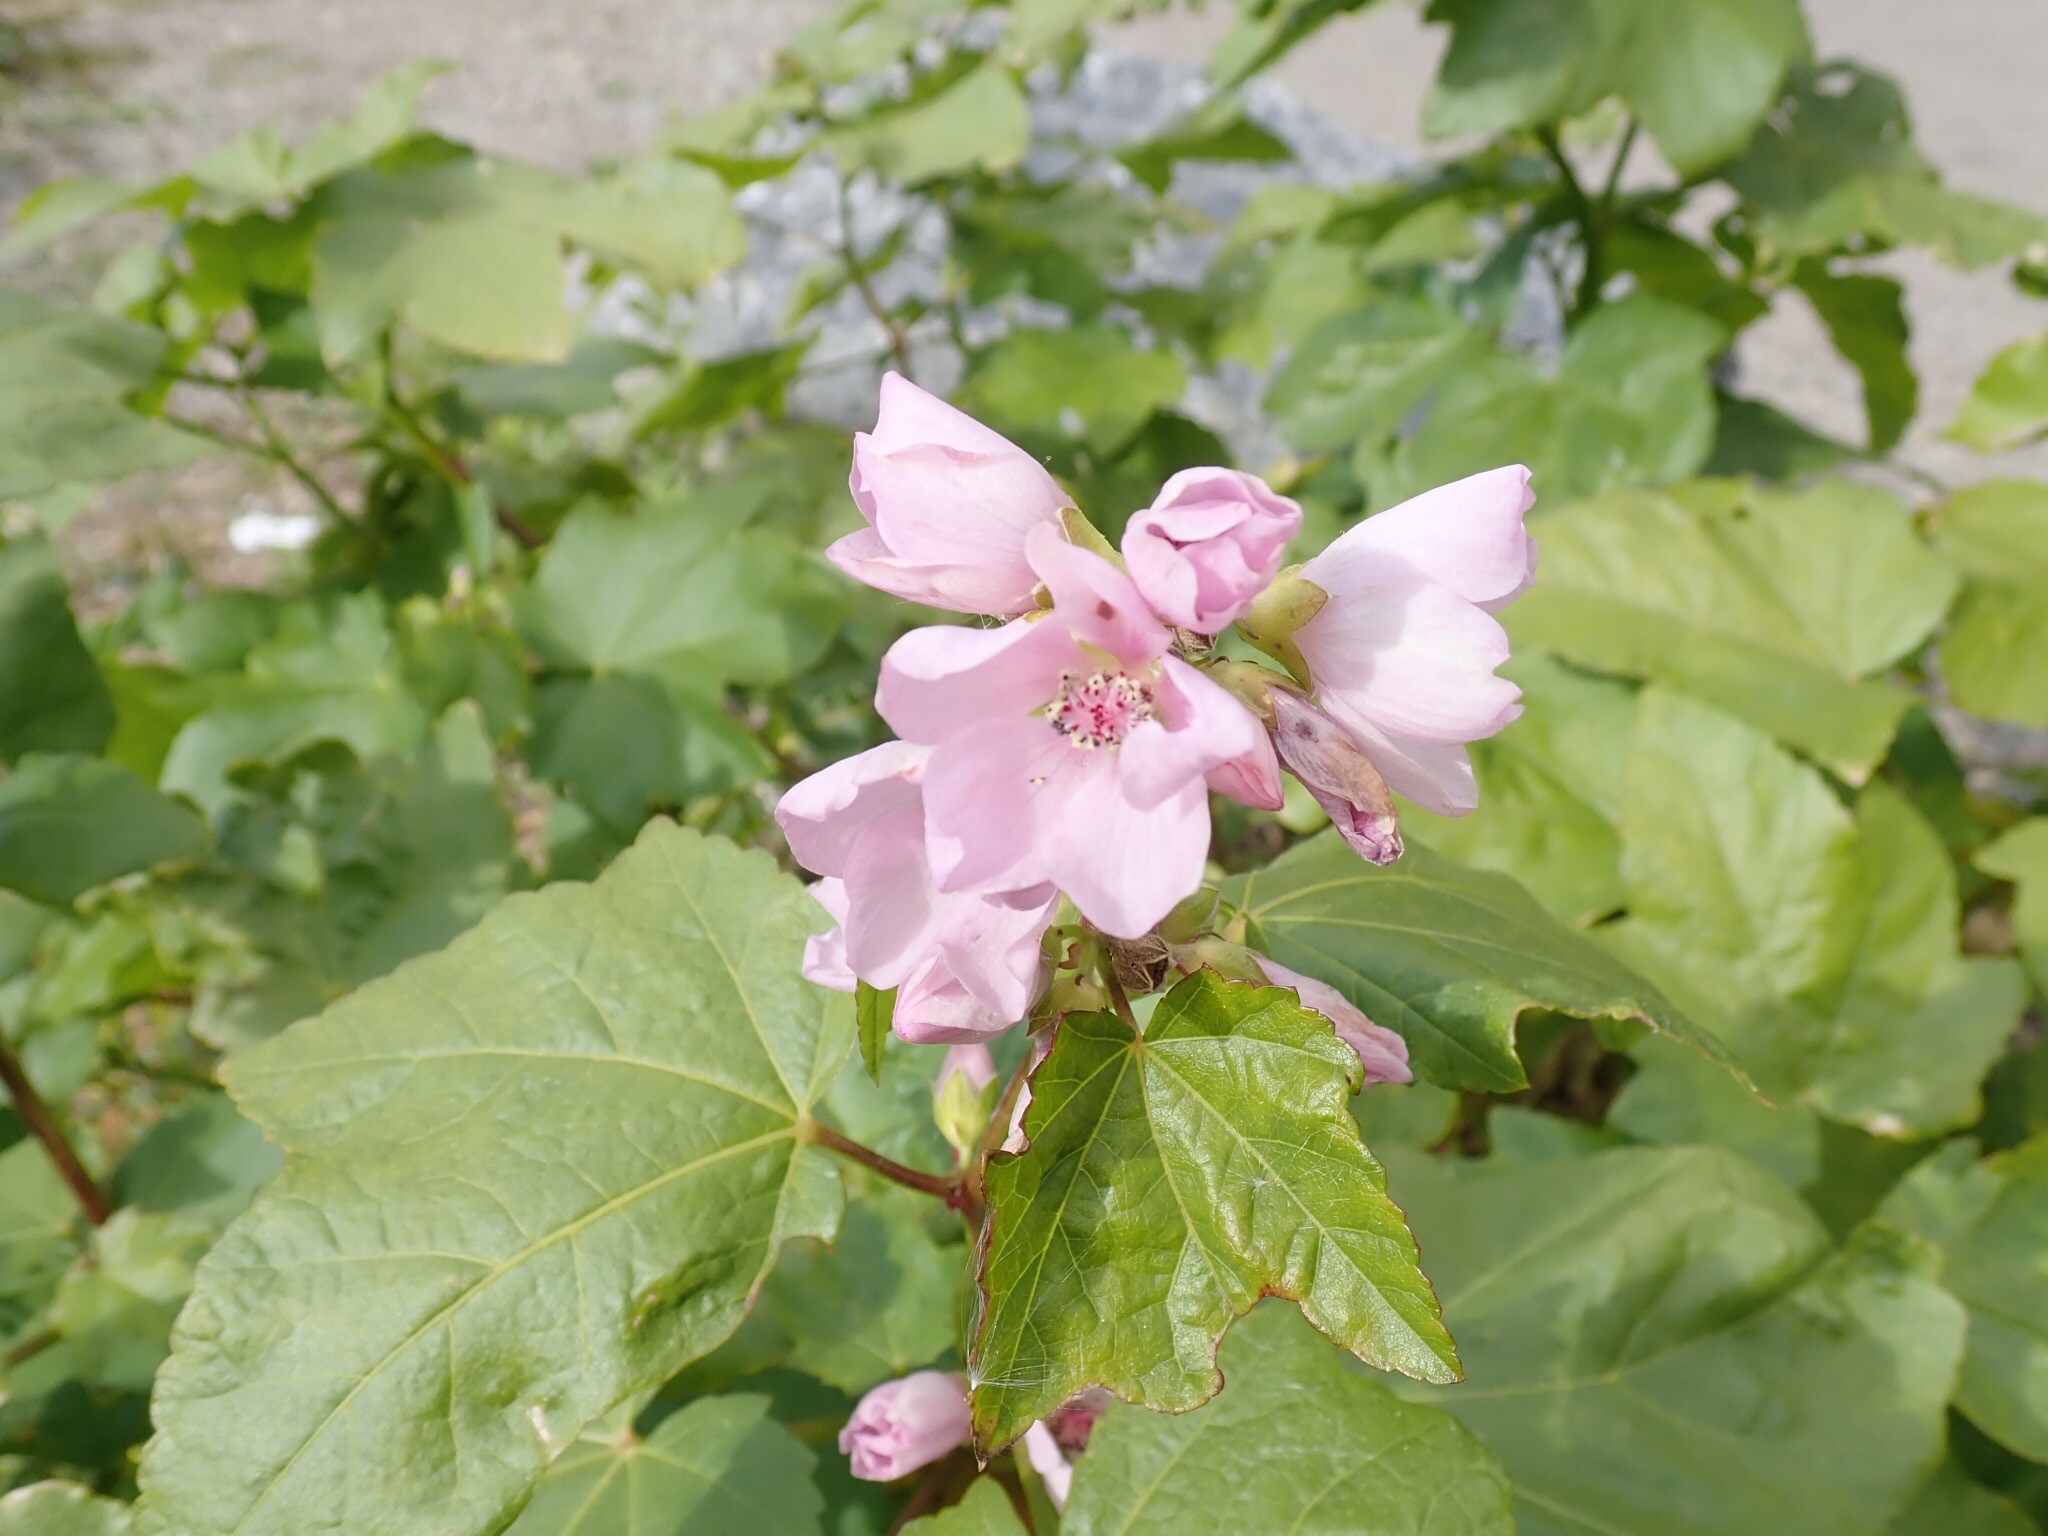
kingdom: Plantae
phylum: Tracheophyta
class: Magnoliopsida
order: Malvales
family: Malvaceae
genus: Iliamna
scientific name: Iliamna rivularis
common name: Wild hollyhock
